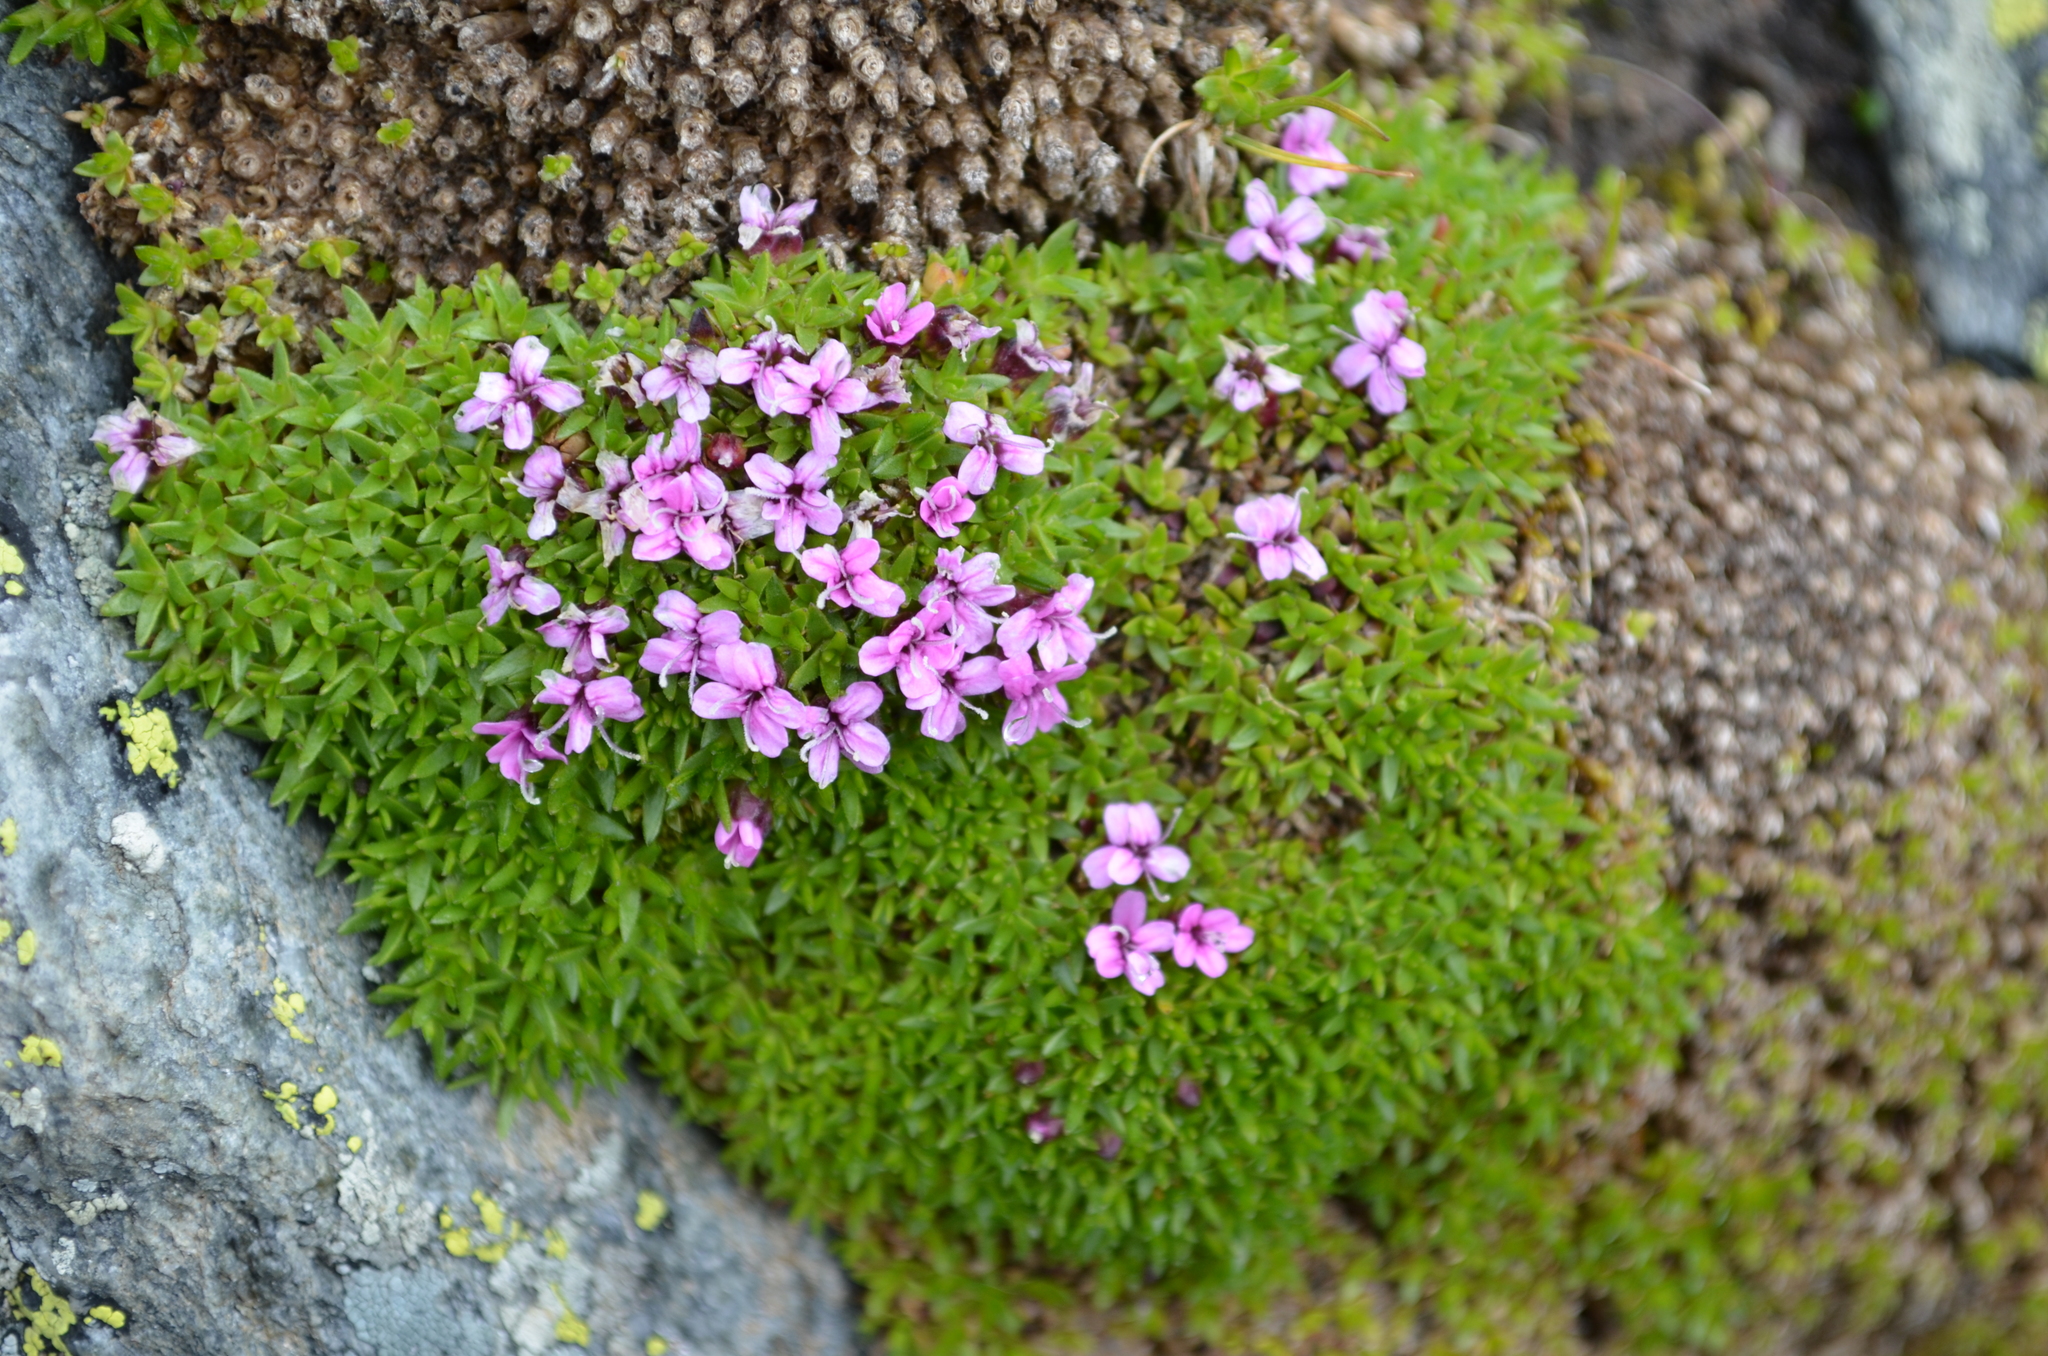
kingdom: Plantae
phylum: Tracheophyta
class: Magnoliopsida
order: Caryophyllales
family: Caryophyllaceae
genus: Silene
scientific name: Silene acaulis
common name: Moss campion
